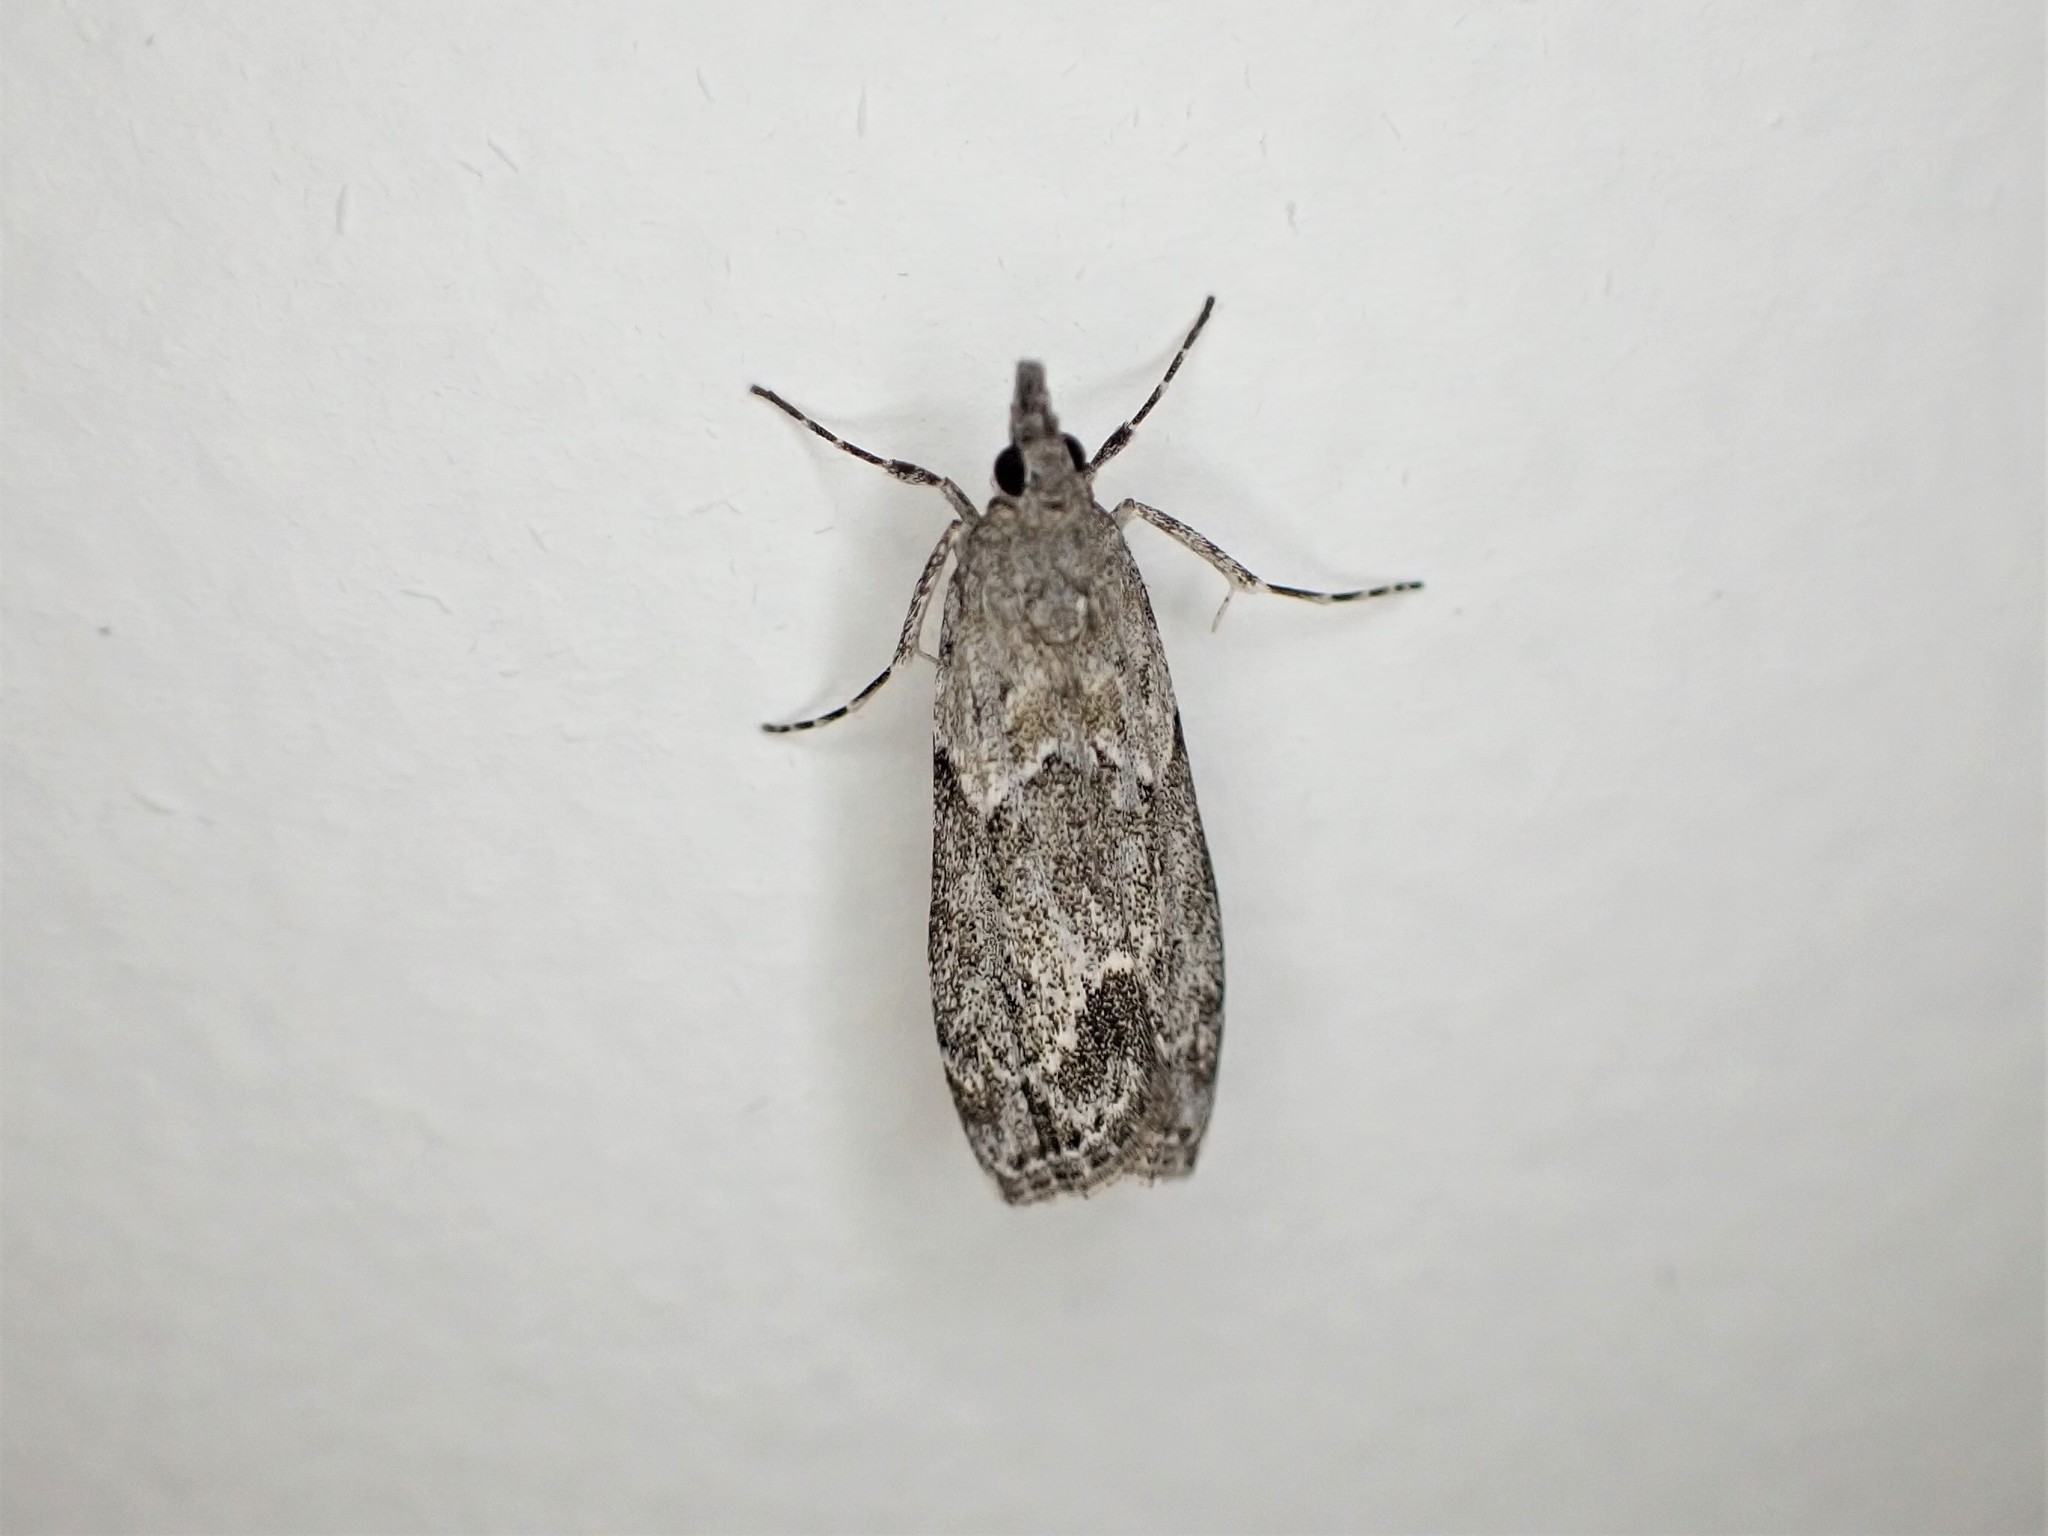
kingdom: Animalia
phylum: Arthropoda
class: Insecta
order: Lepidoptera
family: Crambidae
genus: Eudonia
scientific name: Eudonia rakaiensis
